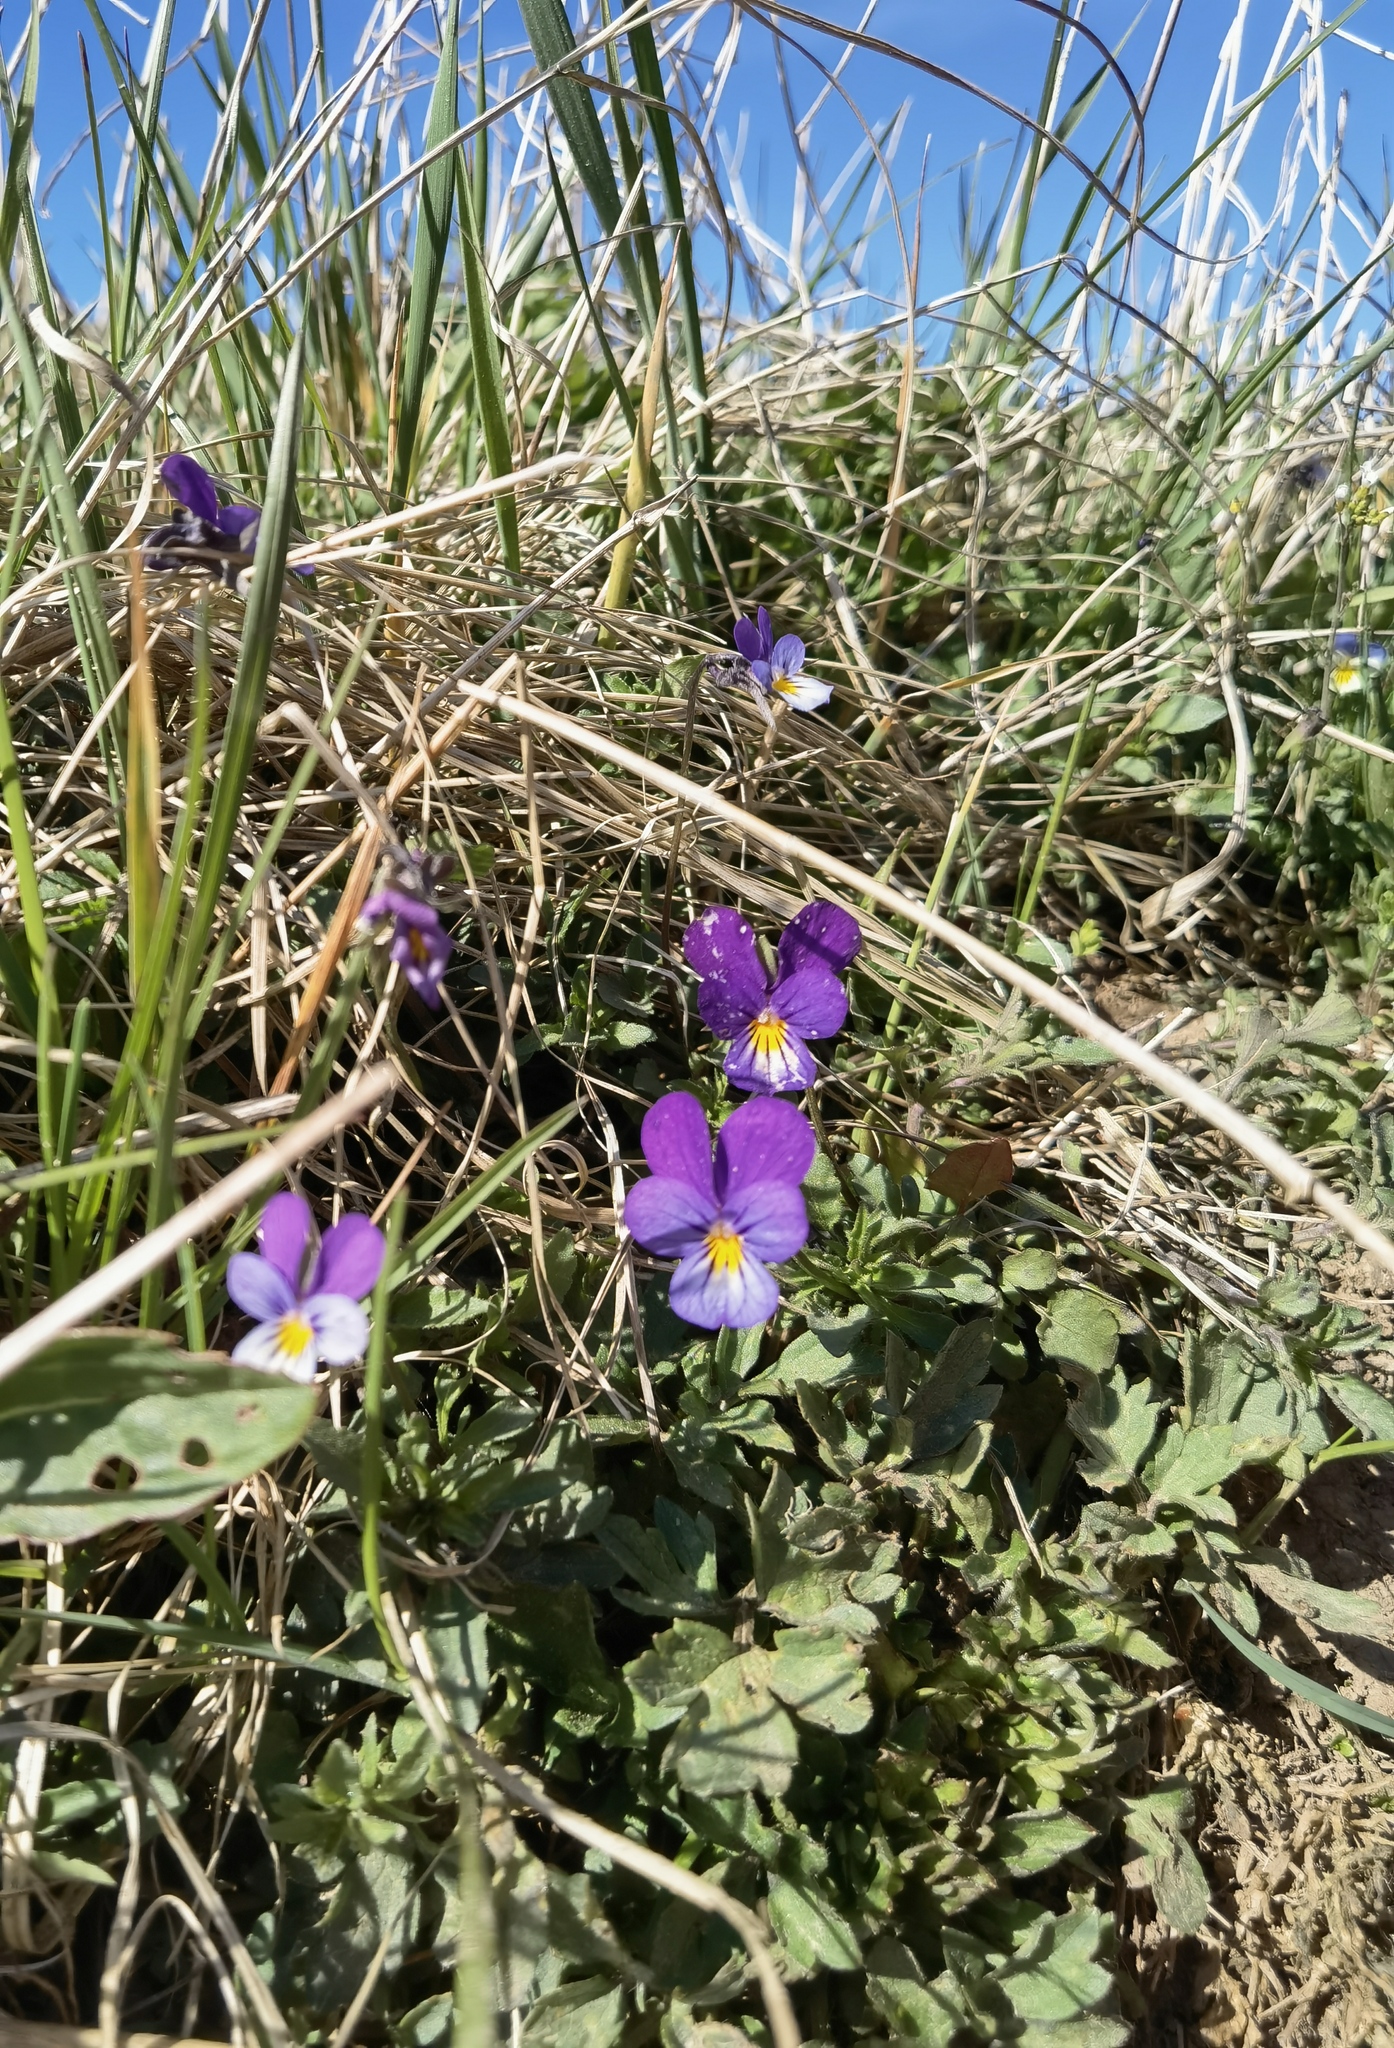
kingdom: Plantae
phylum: Tracheophyta
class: Magnoliopsida
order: Malpighiales
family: Violaceae
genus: Viola
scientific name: Viola tricolor
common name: Pansy
